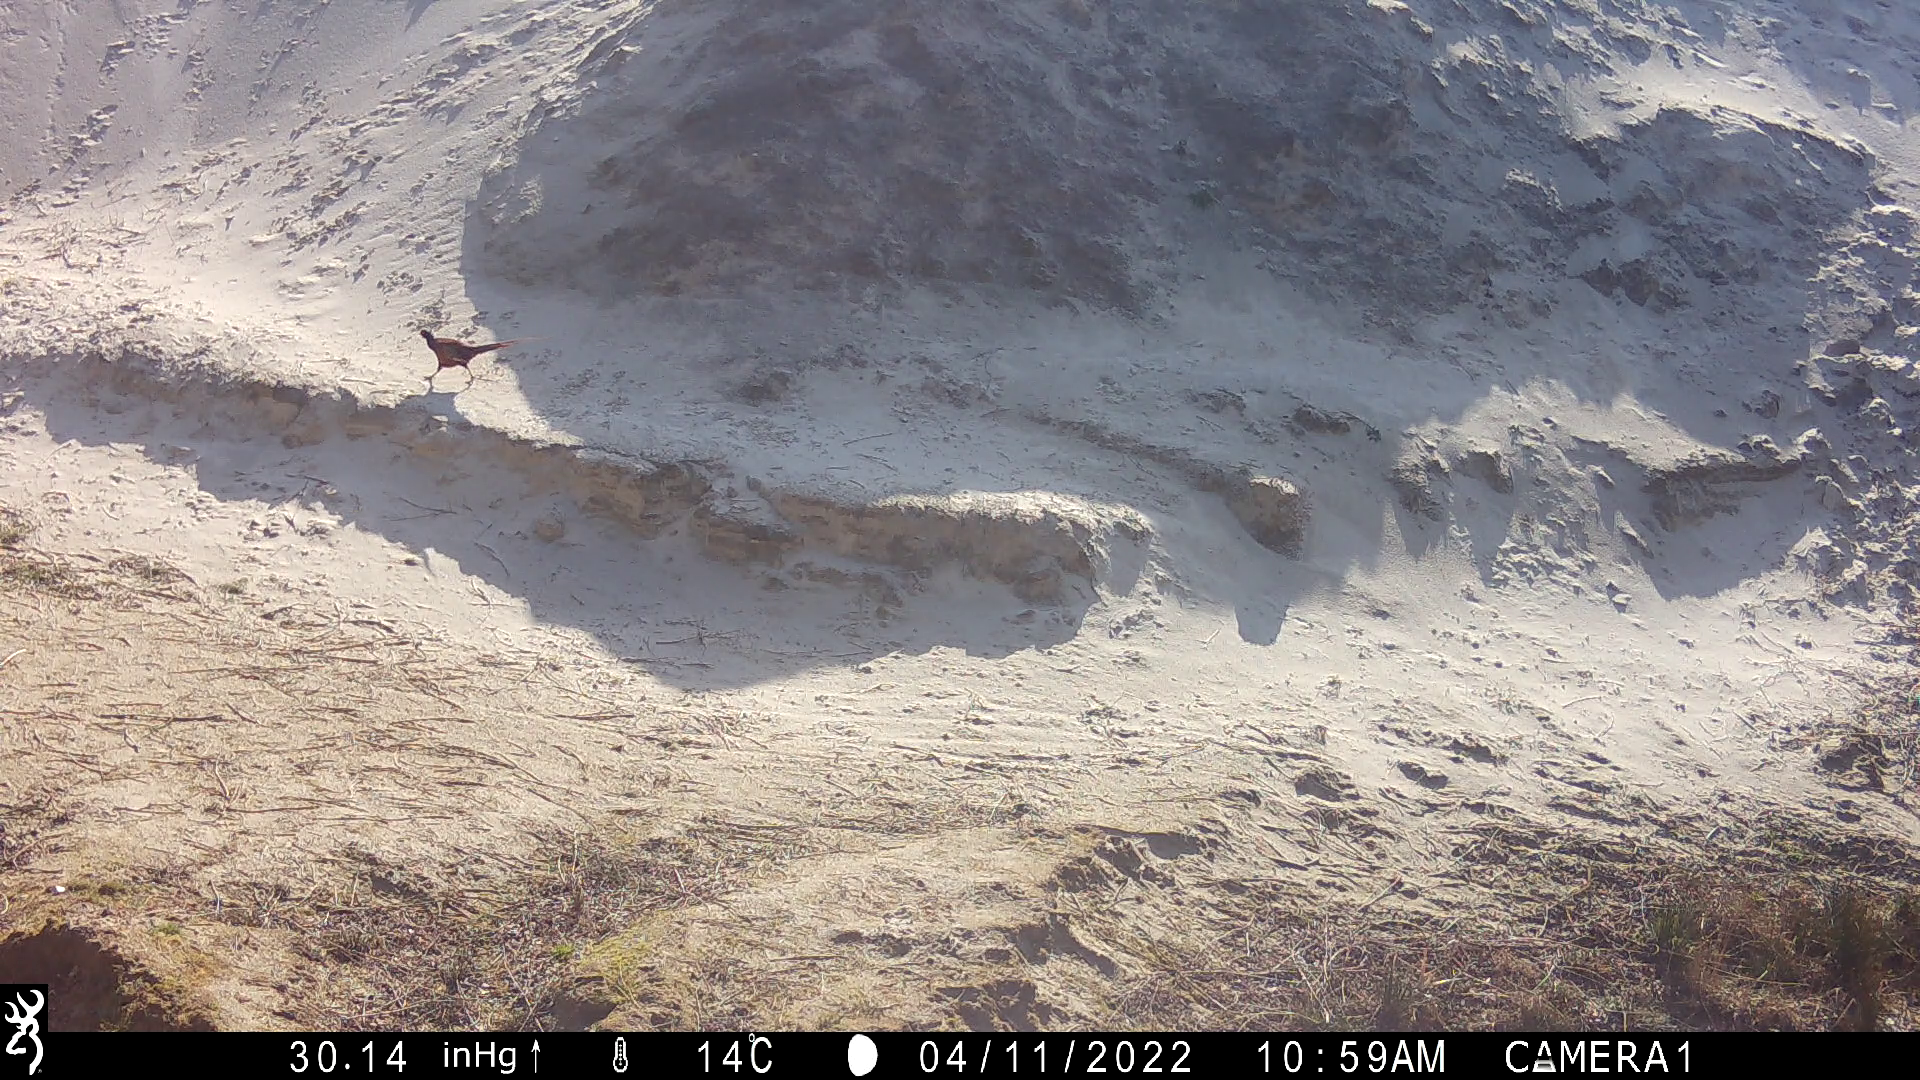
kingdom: Animalia
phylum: Chordata
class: Aves
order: Galliformes
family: Phasianidae
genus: Phasianus
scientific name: Phasianus colchicus
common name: Common pheasant
